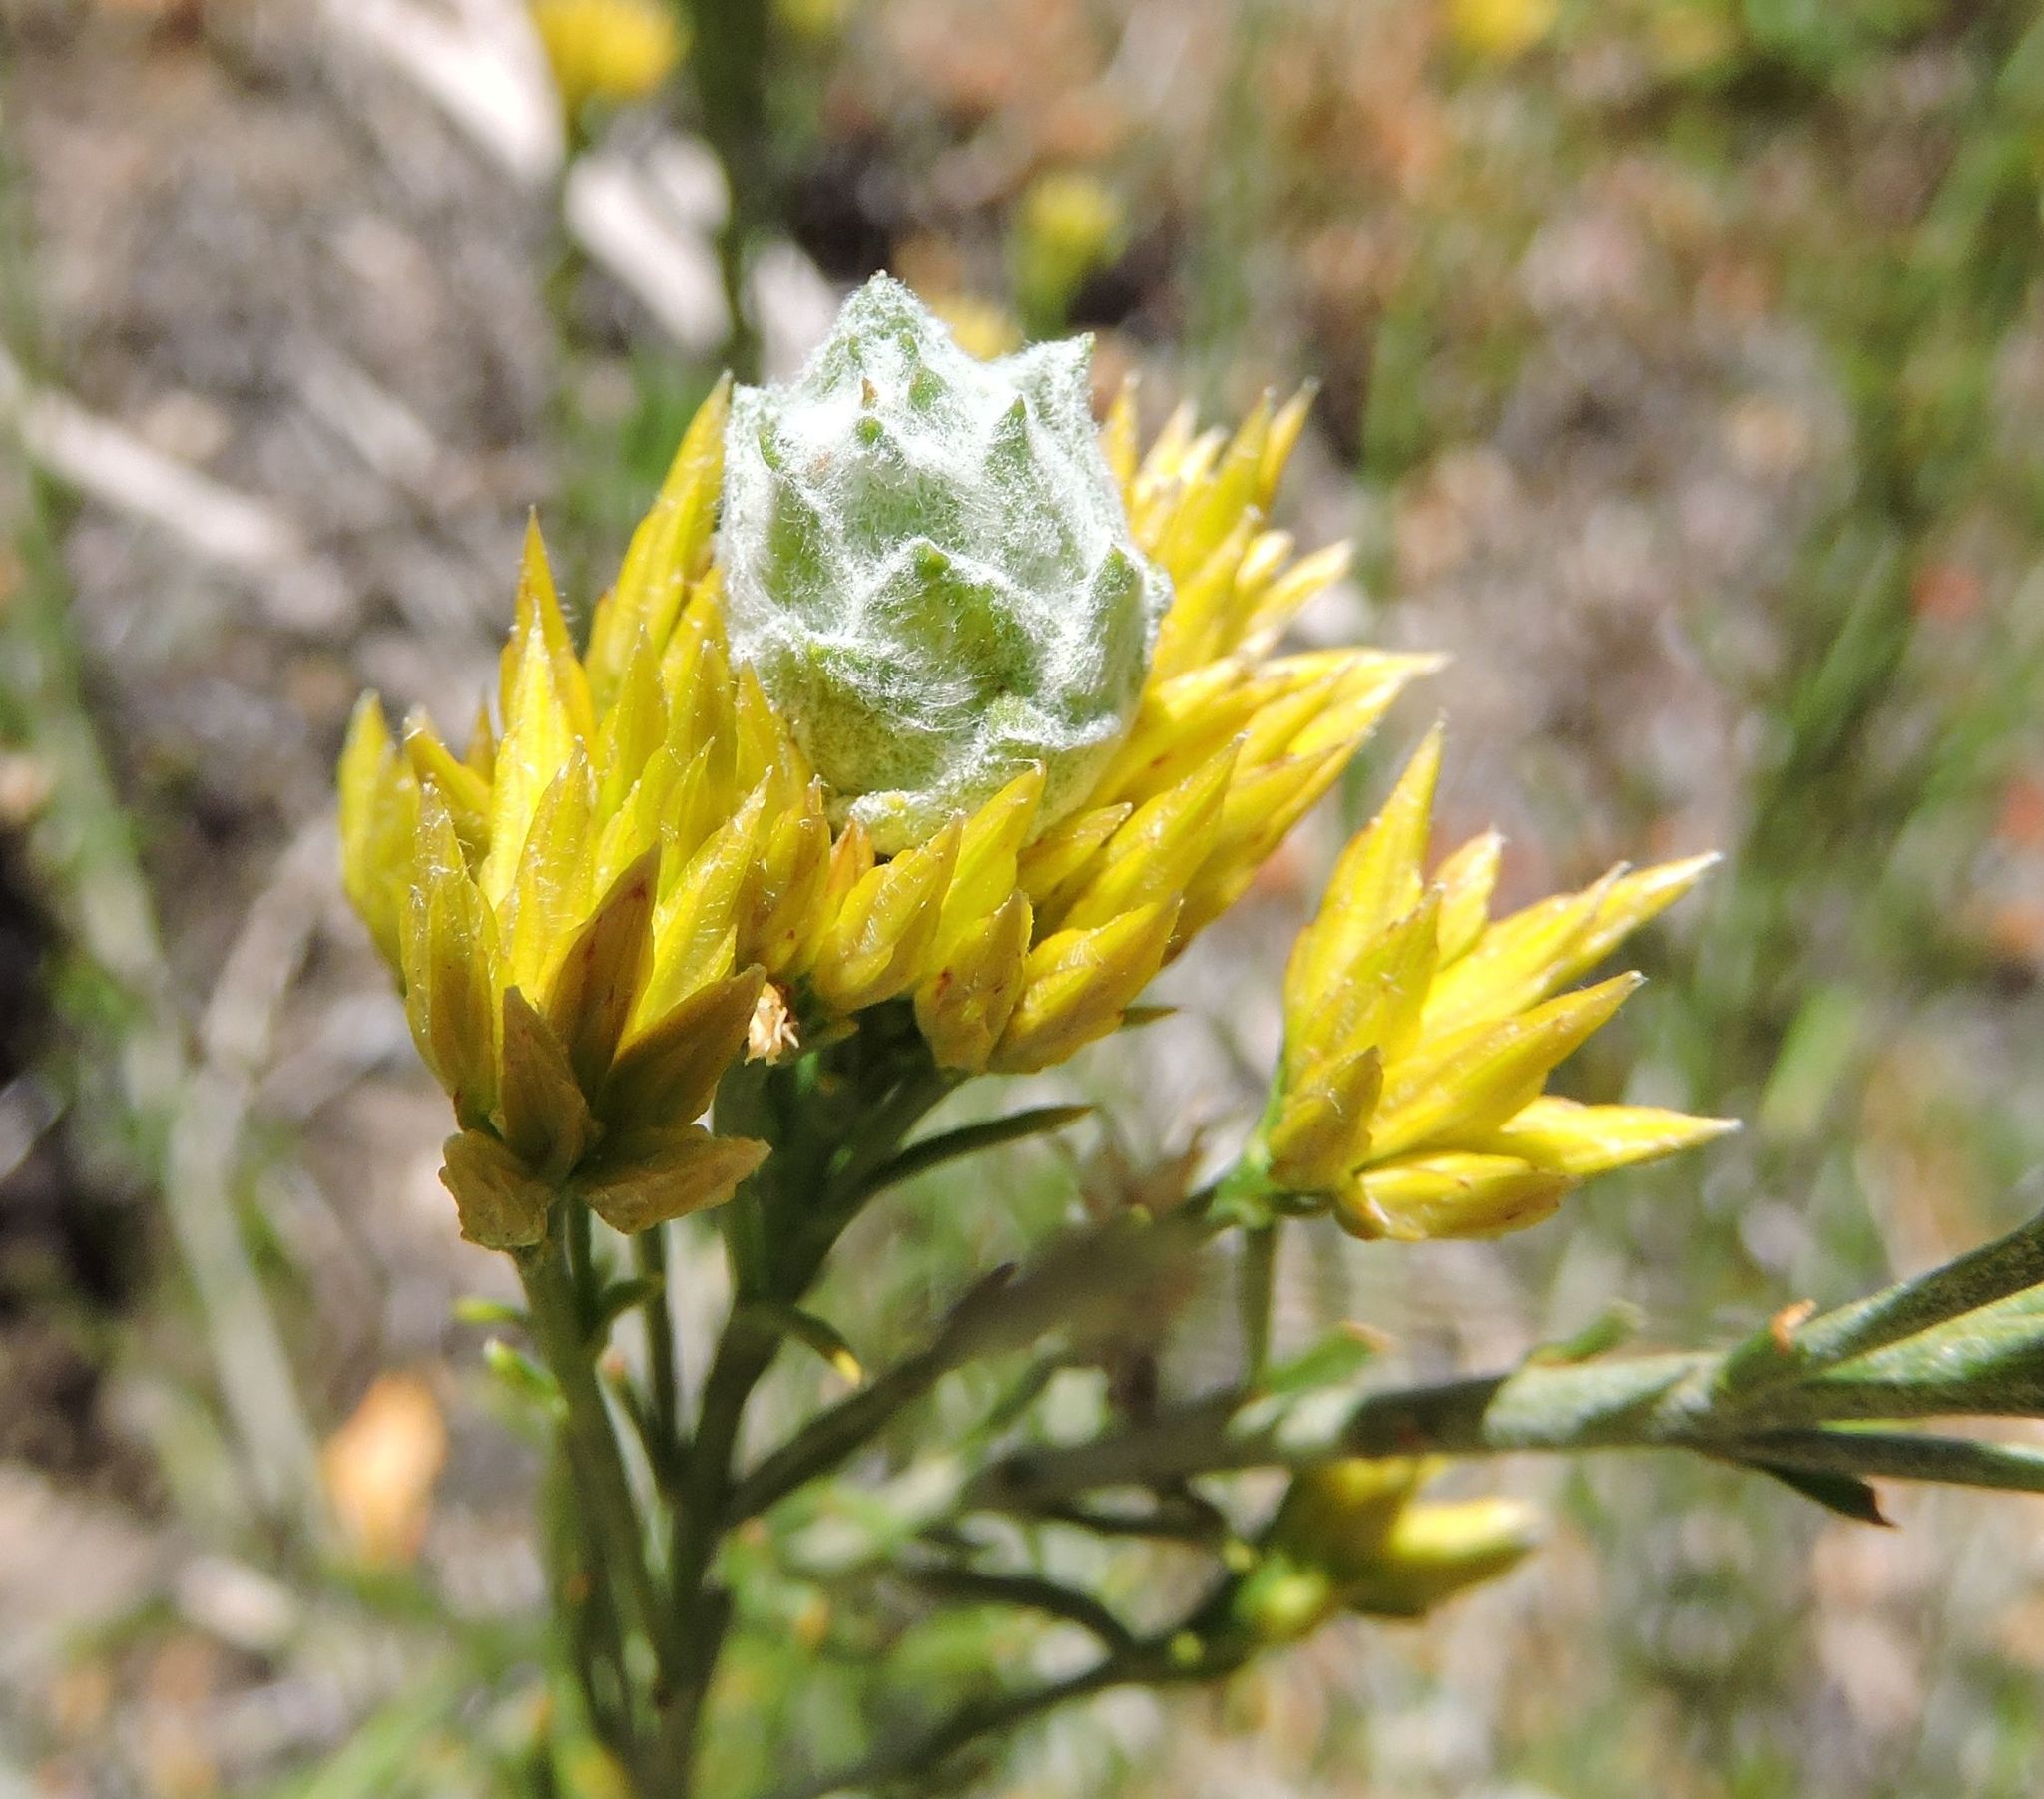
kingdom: Plantae
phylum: Tracheophyta
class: Magnoliopsida
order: Asterales
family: Asteraceae
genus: Ericameria
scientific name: Ericameria nauseosa
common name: Rubber rabbitbrush
